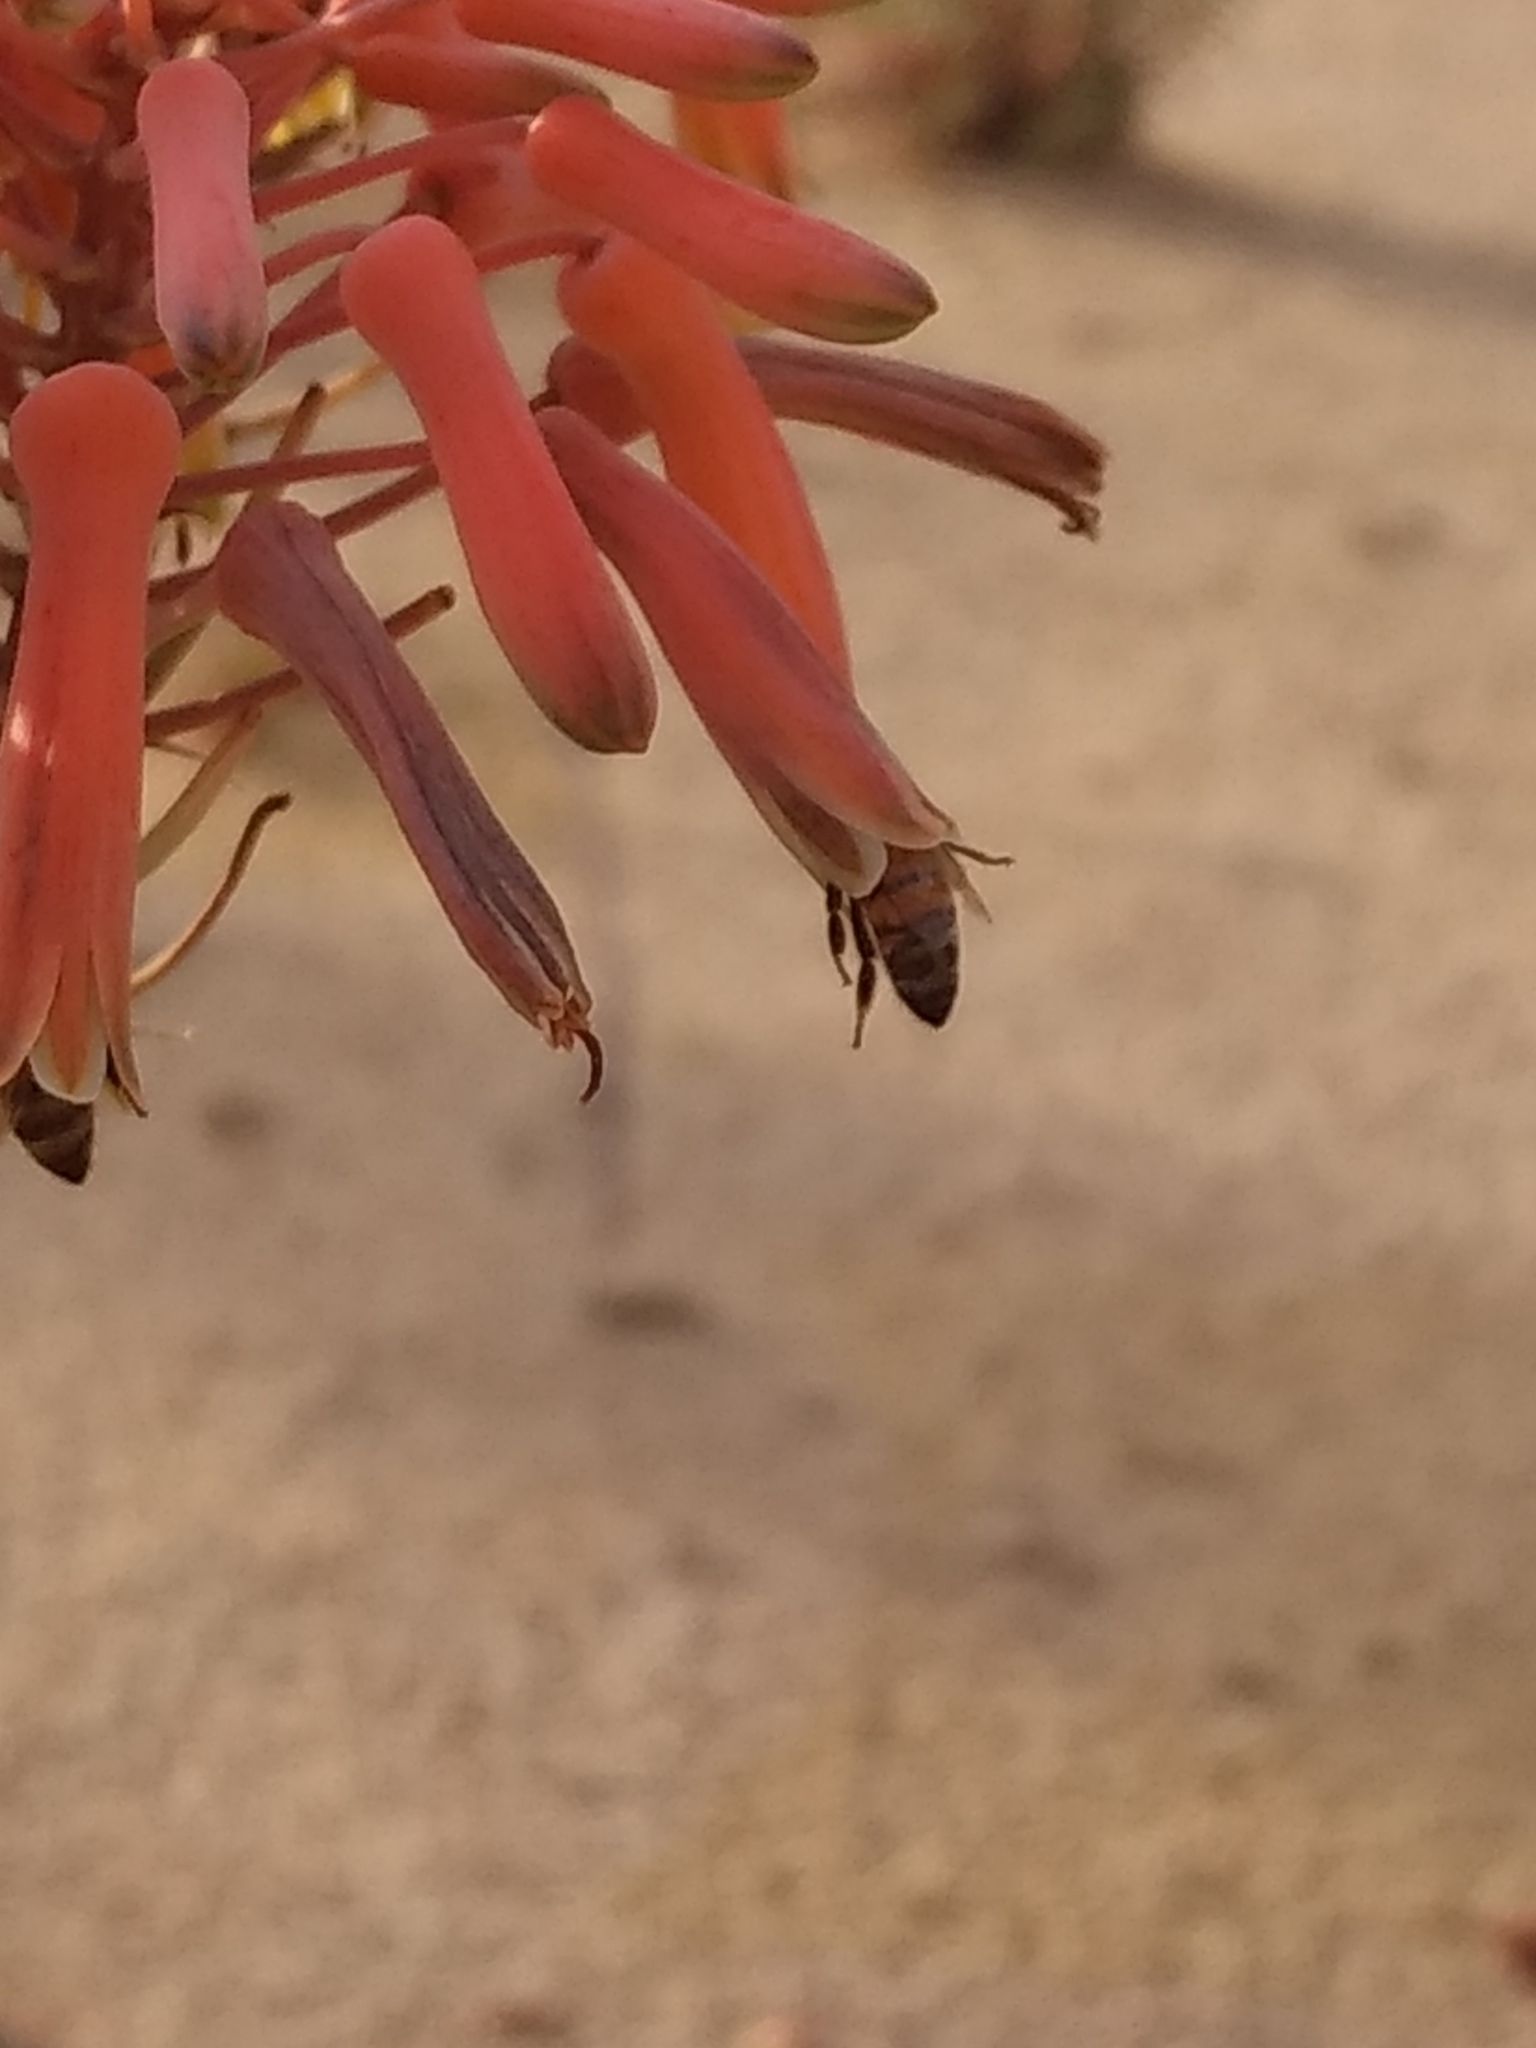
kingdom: Animalia
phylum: Arthropoda
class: Insecta
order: Hymenoptera
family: Apidae
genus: Apis
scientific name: Apis mellifera
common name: Honey bee
